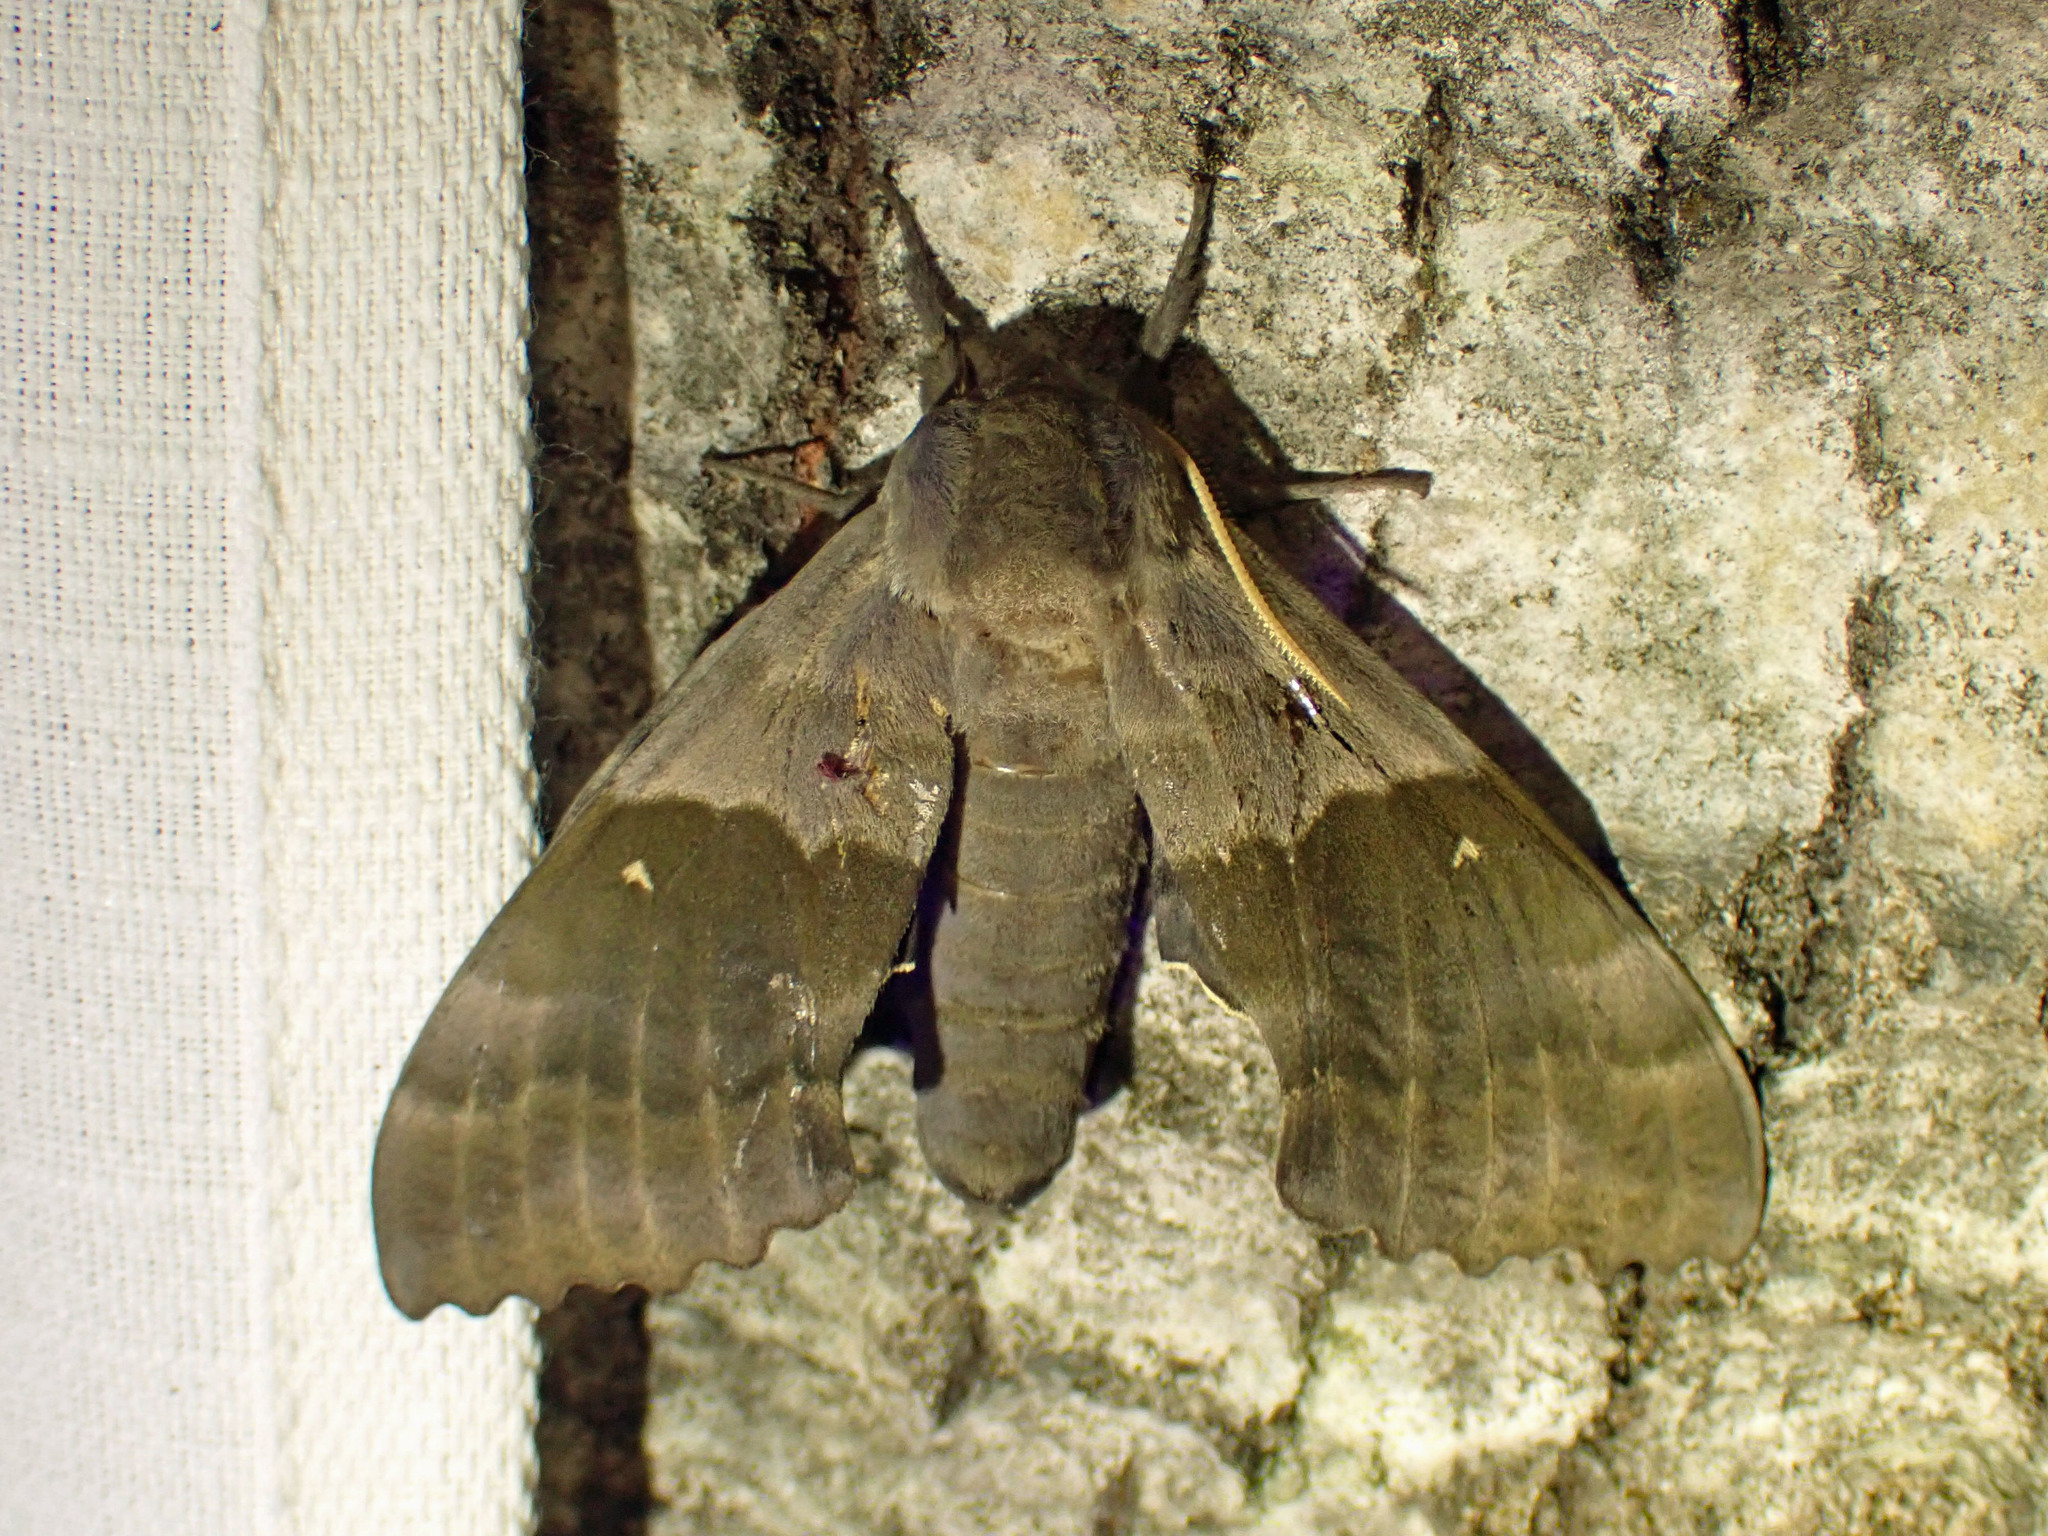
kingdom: Animalia
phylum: Arthropoda
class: Insecta
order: Lepidoptera
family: Sphingidae
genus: Pachysphinx
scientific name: Pachysphinx modesta
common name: Big poplar sphinx
